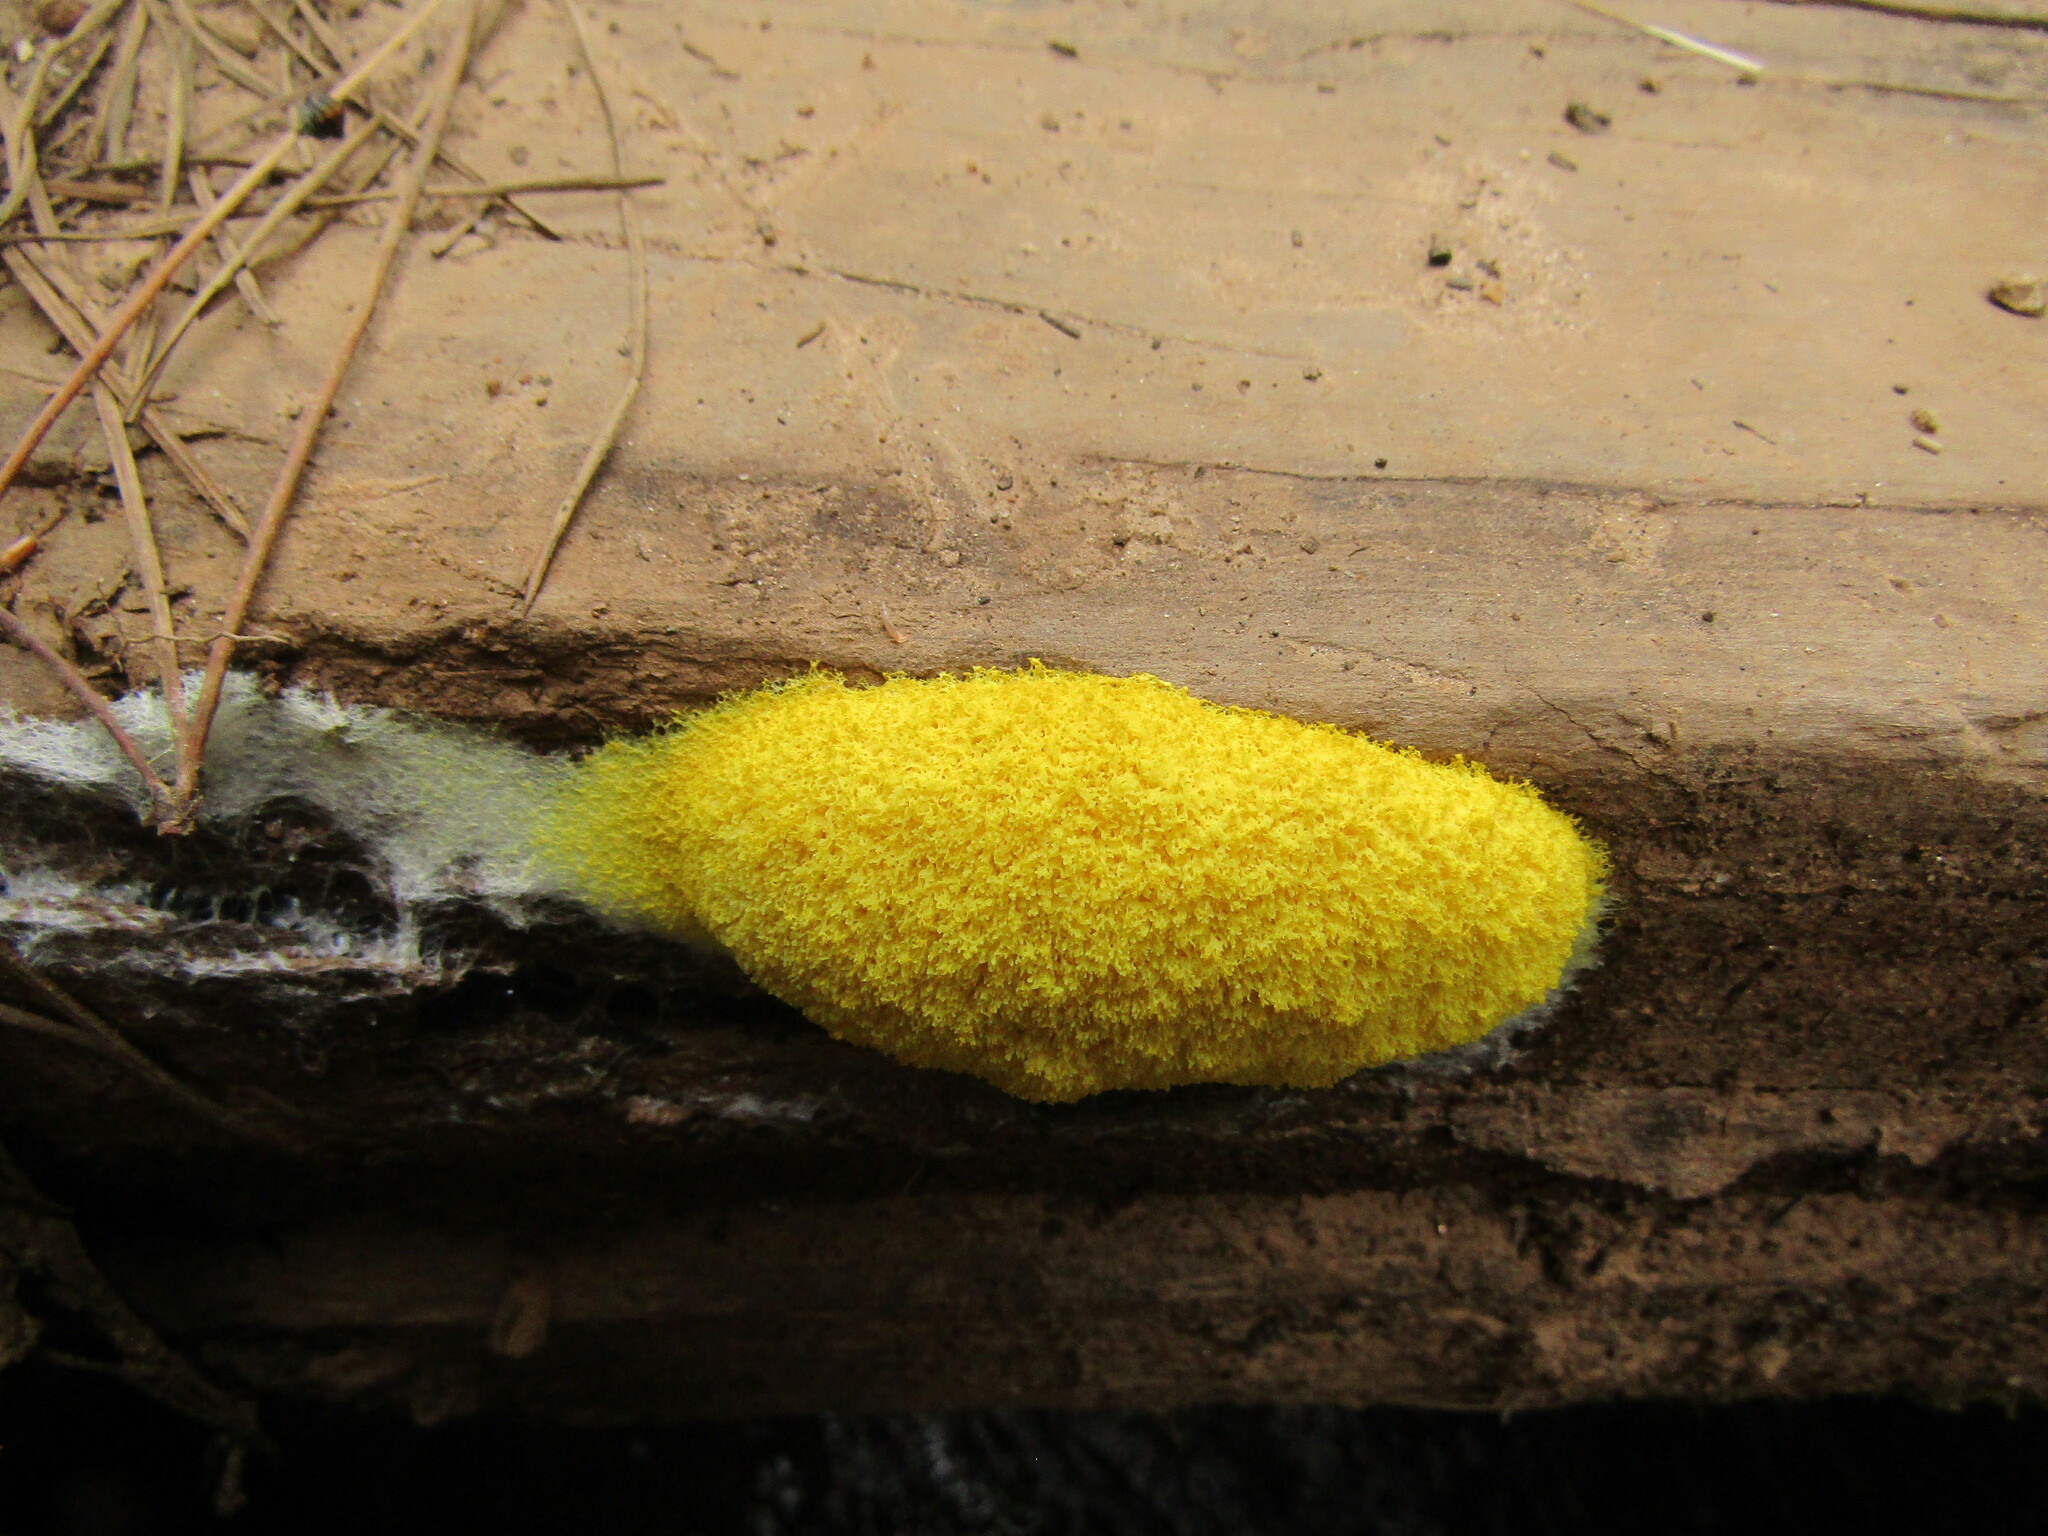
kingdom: Protozoa
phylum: Mycetozoa
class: Myxomycetes
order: Physarales
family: Physaraceae
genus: Fuligo
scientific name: Fuligo septica
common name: Dog vomit slime mold
